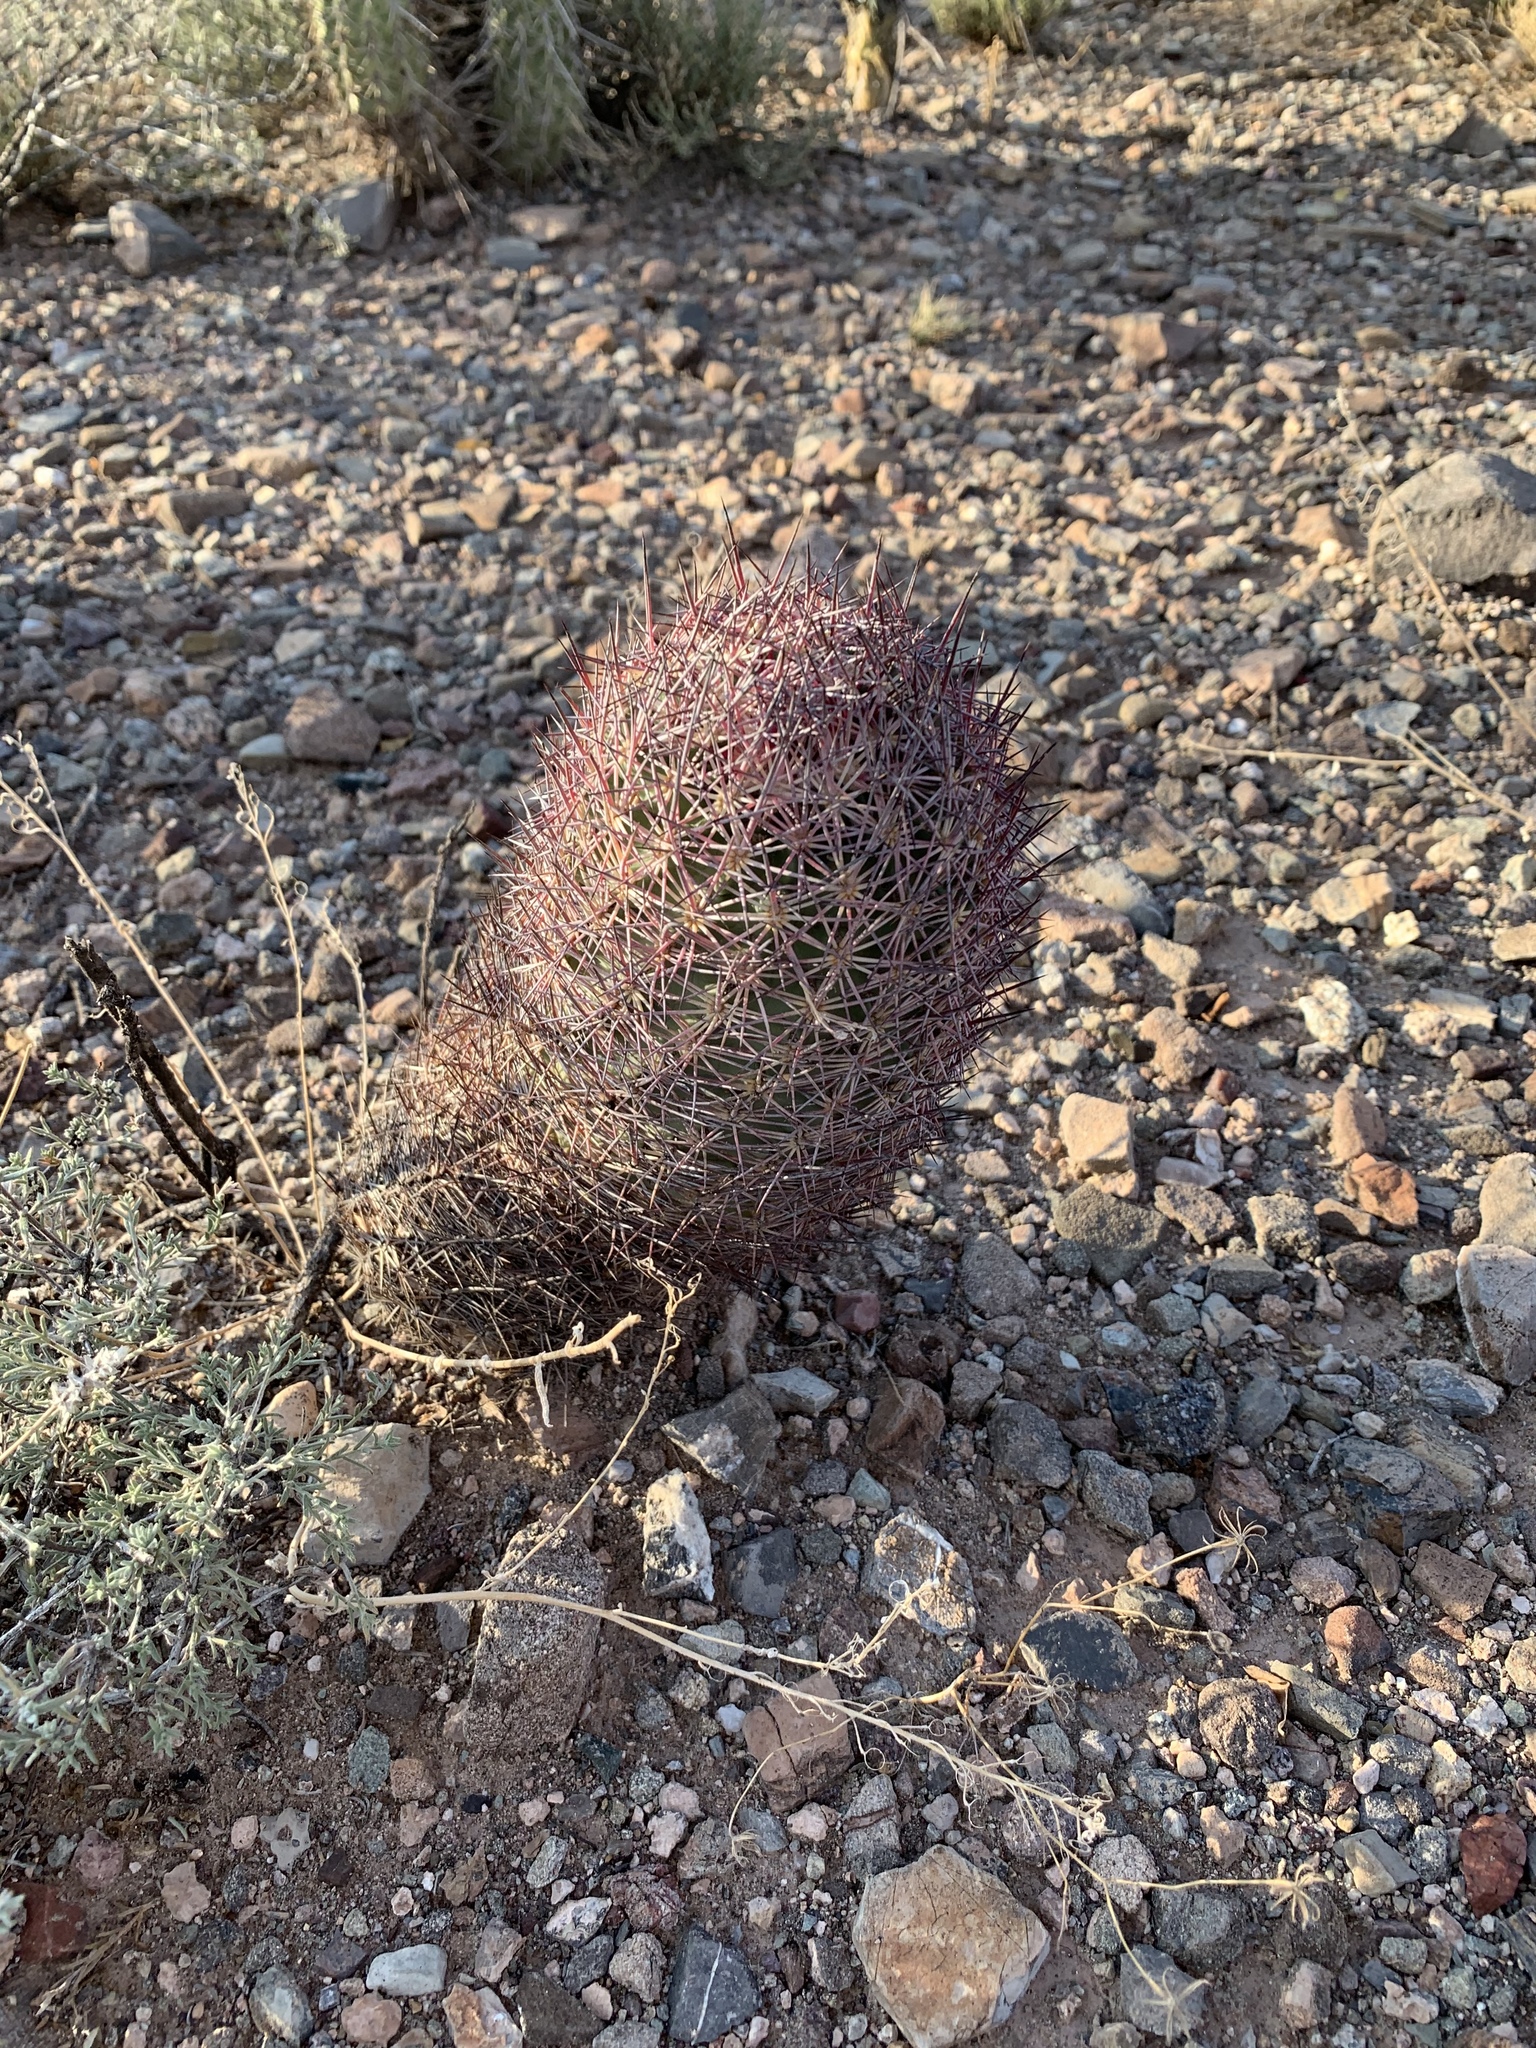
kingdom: Plantae
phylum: Tracheophyta
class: Magnoliopsida
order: Caryophyllales
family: Cactaceae
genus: Sclerocactus
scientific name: Sclerocactus johnsonii
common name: Eight-spine fishhook cactus
